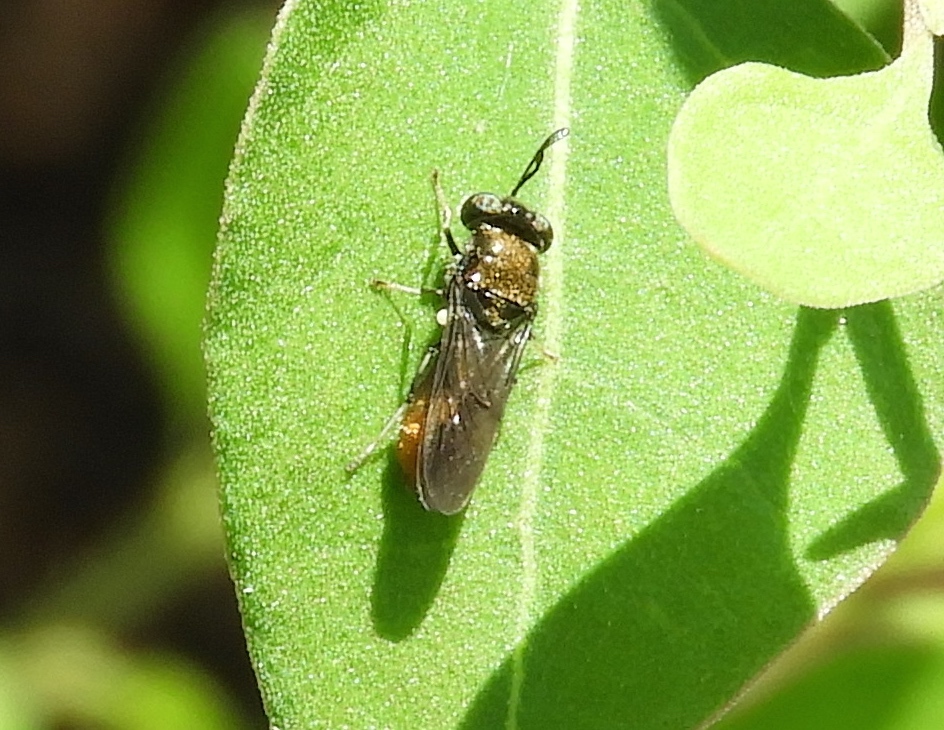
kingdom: Animalia
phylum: Arthropoda
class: Insecta
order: Diptera
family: Stratiomyidae
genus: Hermetia
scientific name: Hermetia
